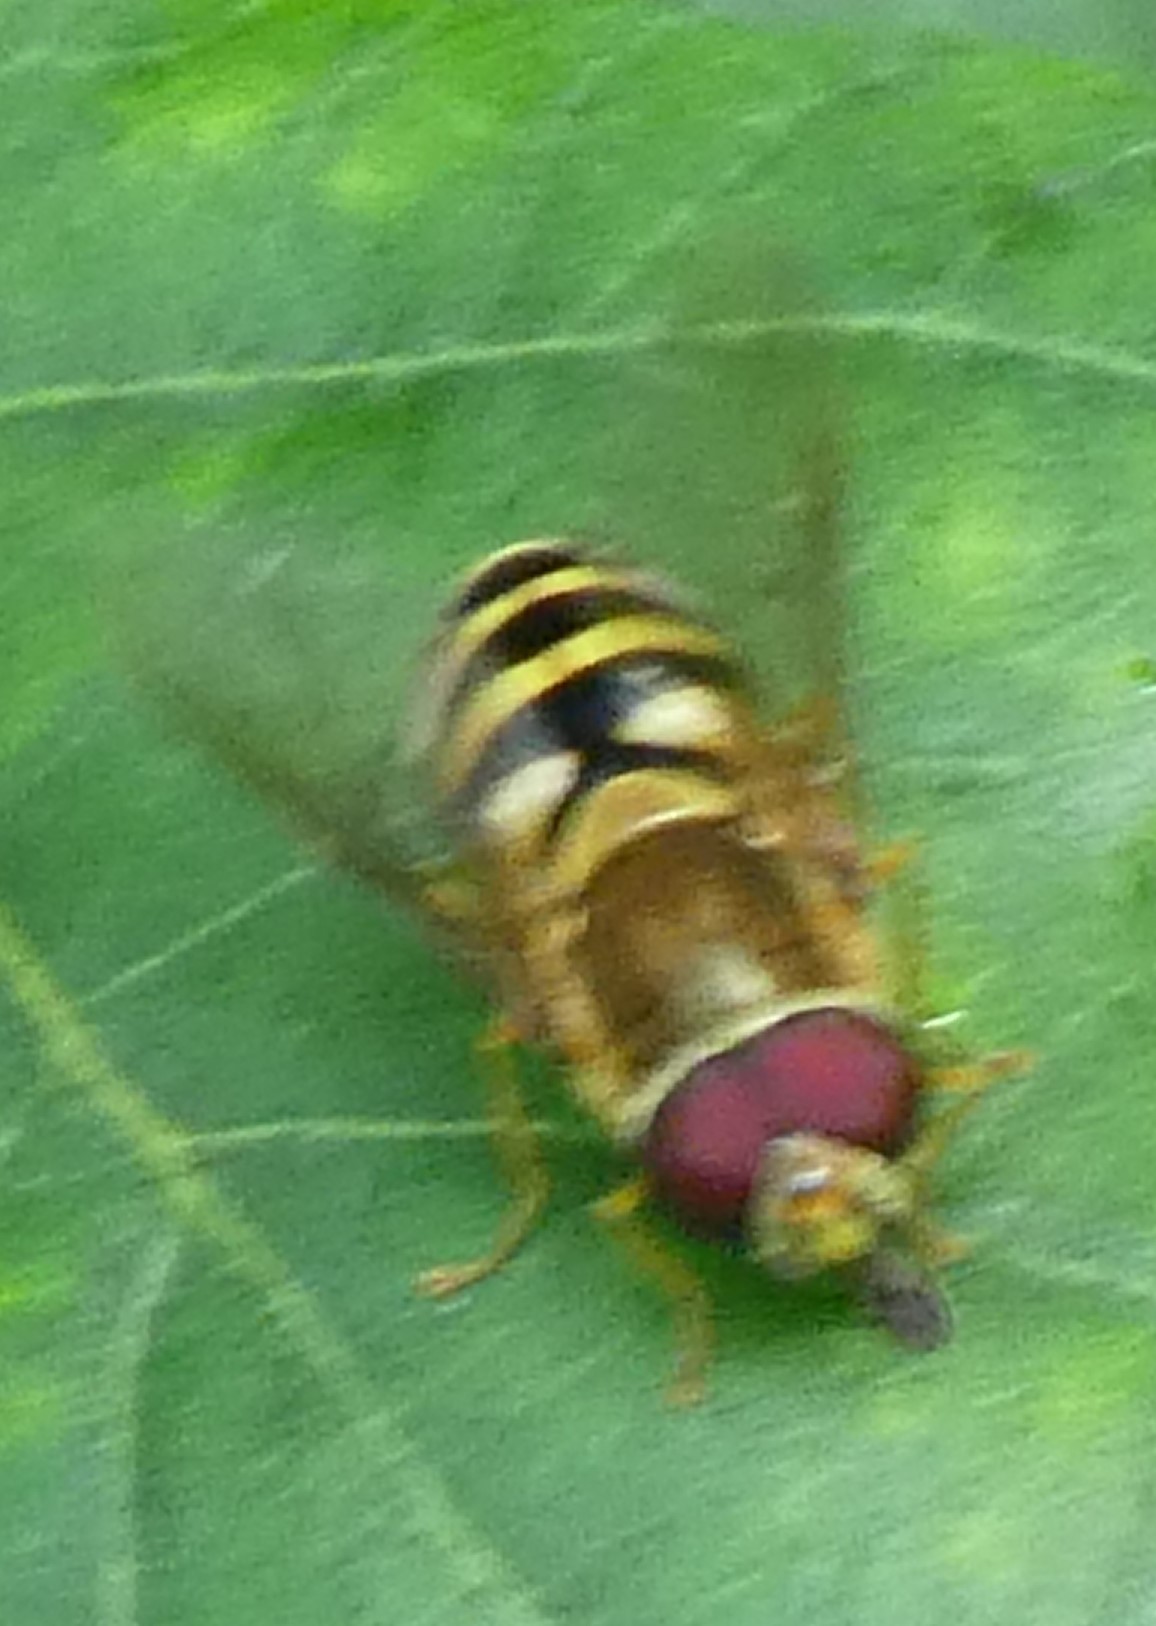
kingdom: Animalia
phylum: Arthropoda
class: Insecta
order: Diptera
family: Syrphidae
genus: Syrphus
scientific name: Syrphus
